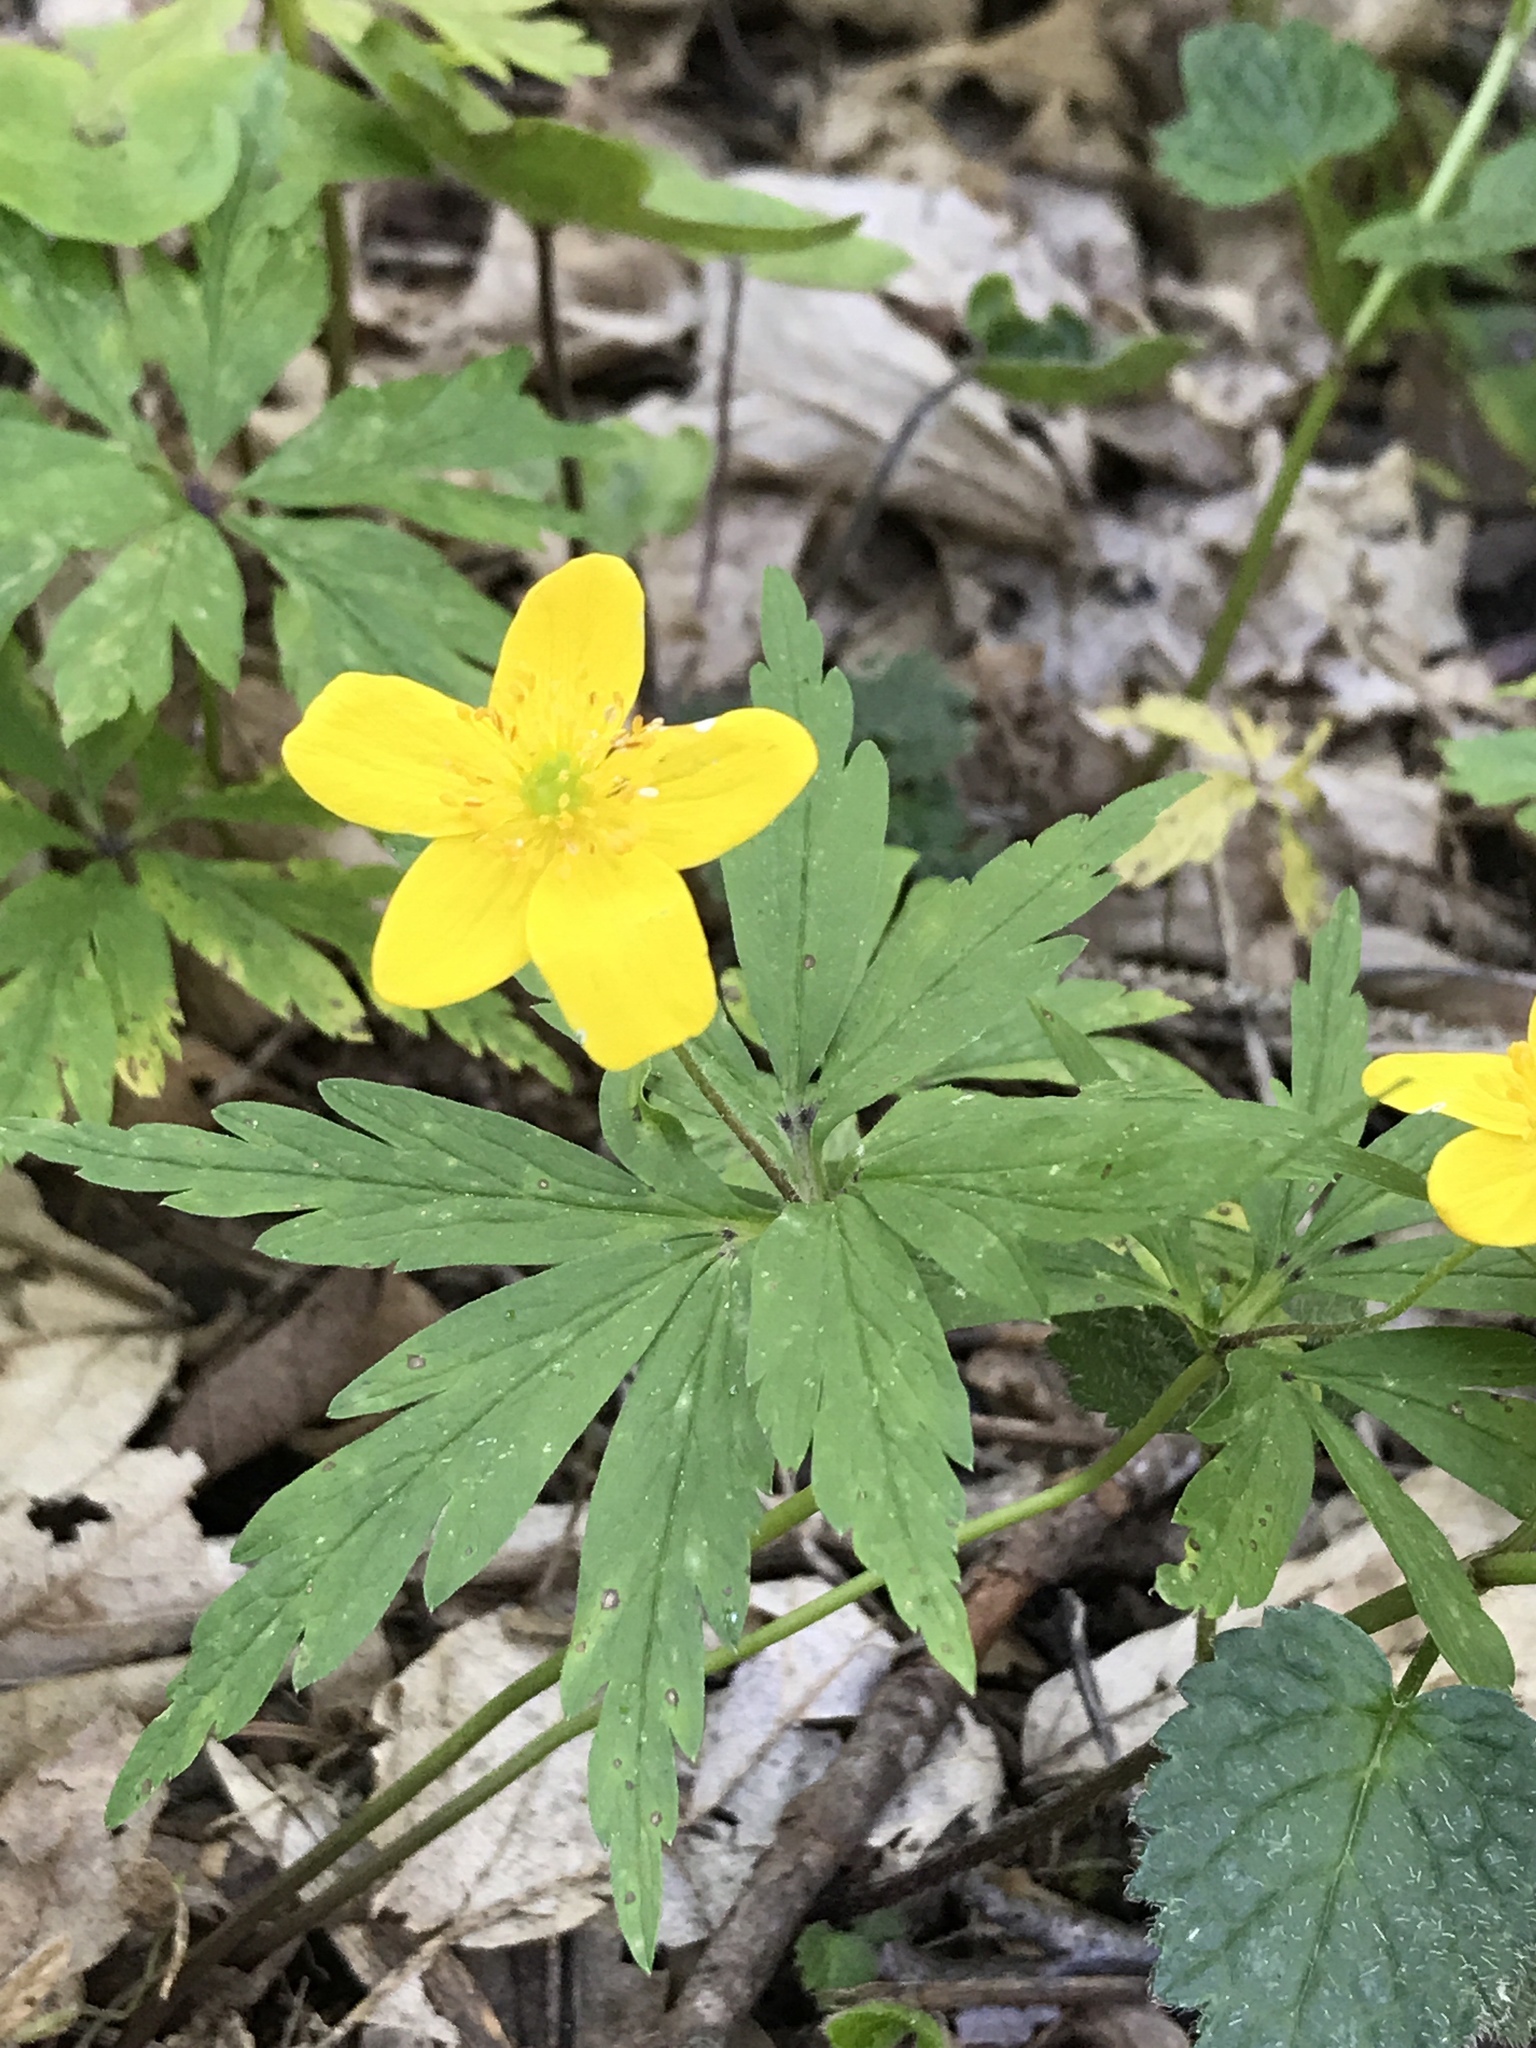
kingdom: Plantae
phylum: Tracheophyta
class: Magnoliopsida
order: Ranunculales
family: Ranunculaceae
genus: Anemone
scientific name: Anemone ranunculoides
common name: Yellow anemone
